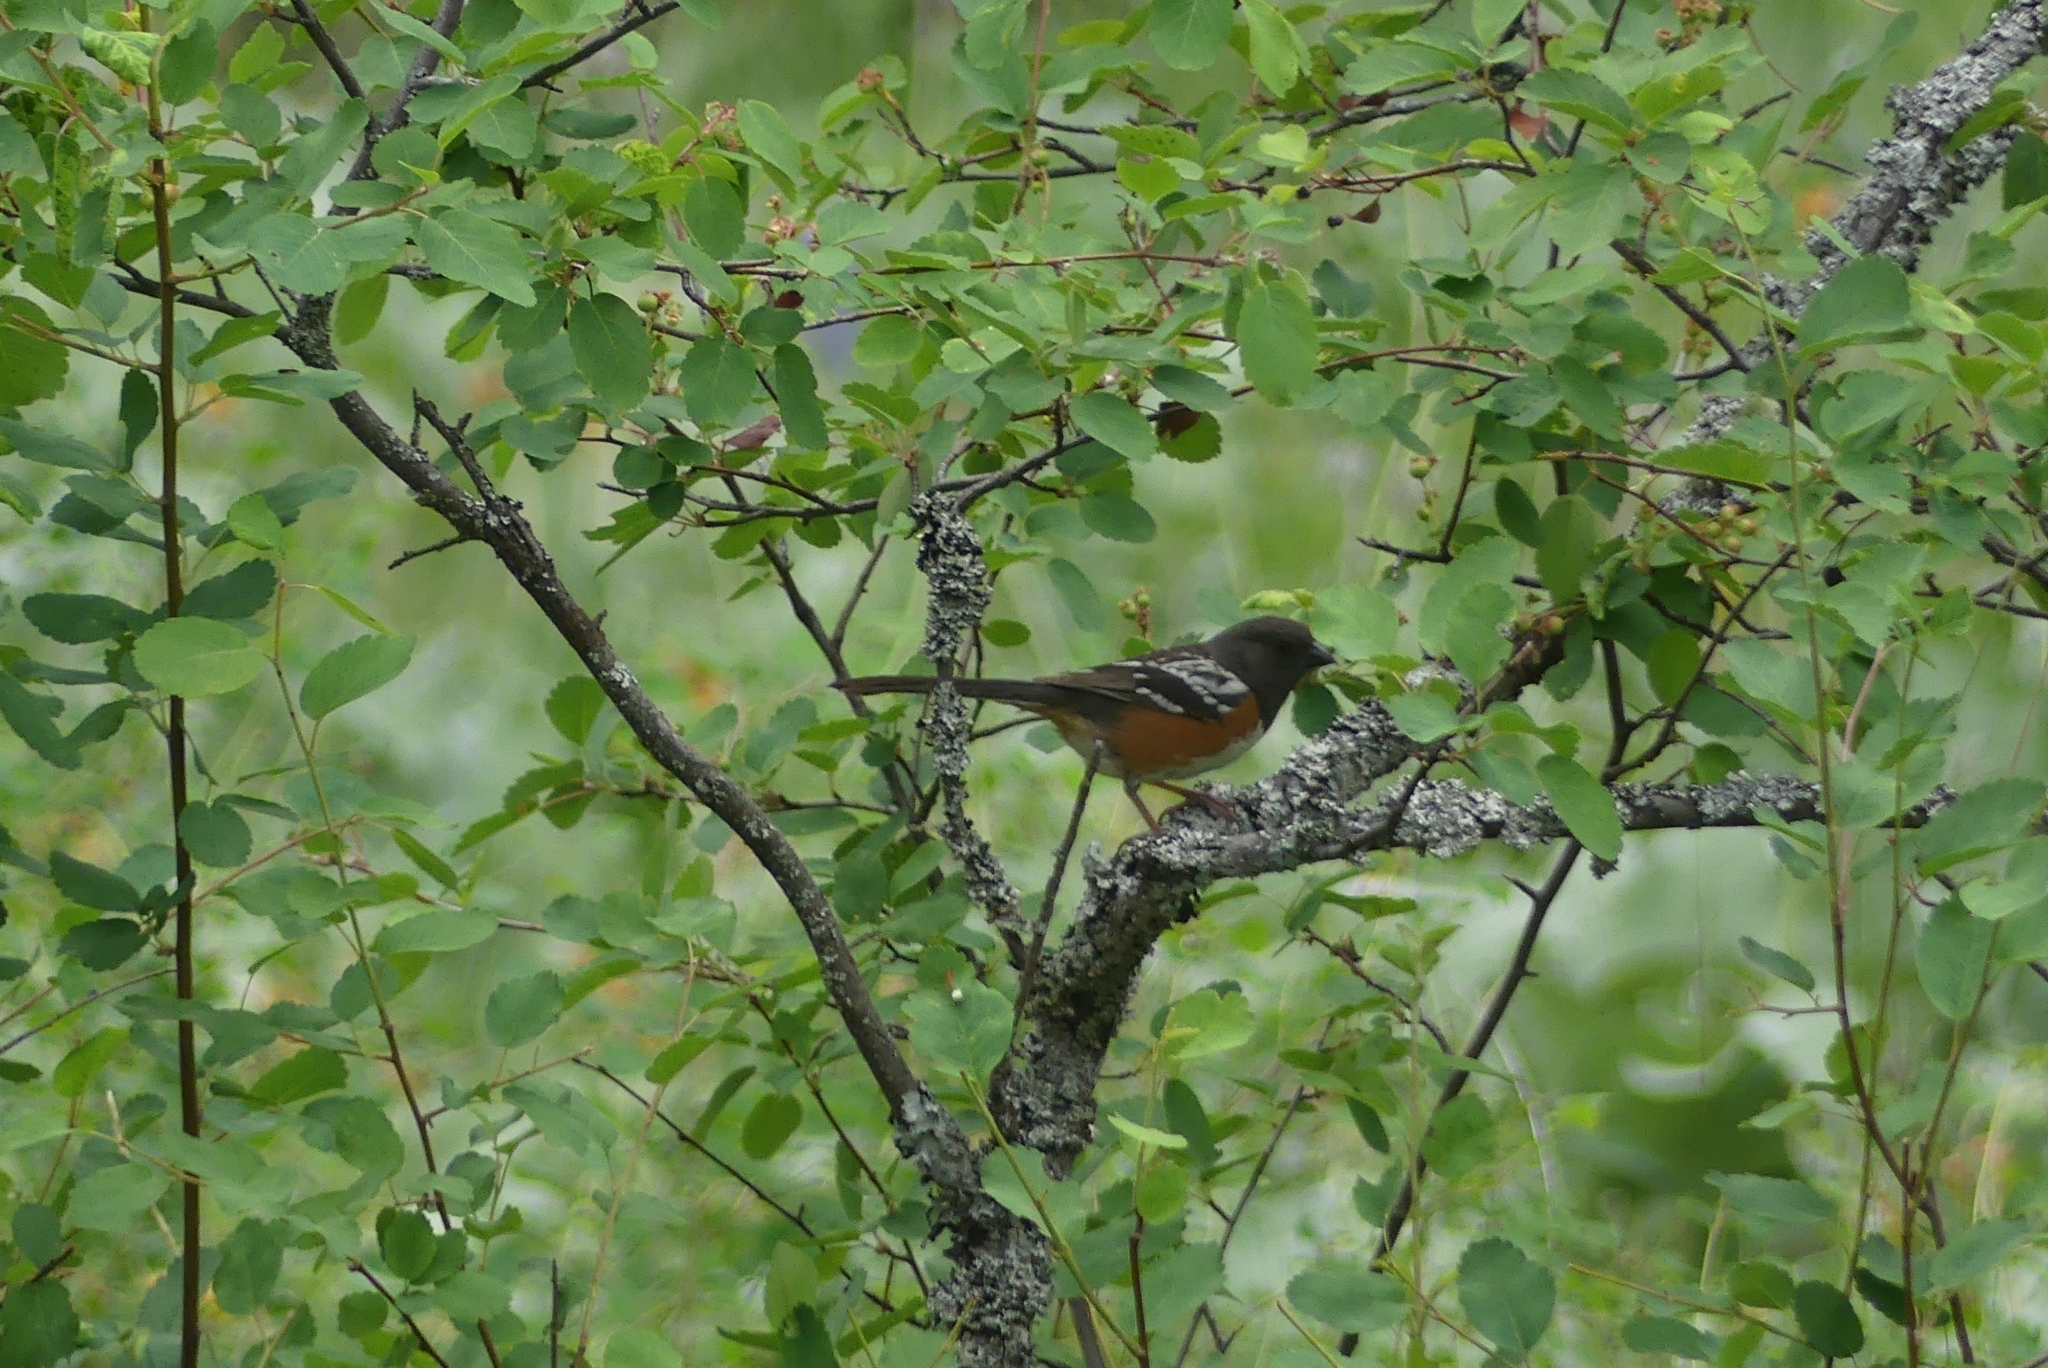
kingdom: Animalia
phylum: Chordata
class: Aves
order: Passeriformes
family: Passerellidae
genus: Pipilo
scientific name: Pipilo maculatus
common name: Spotted towhee
